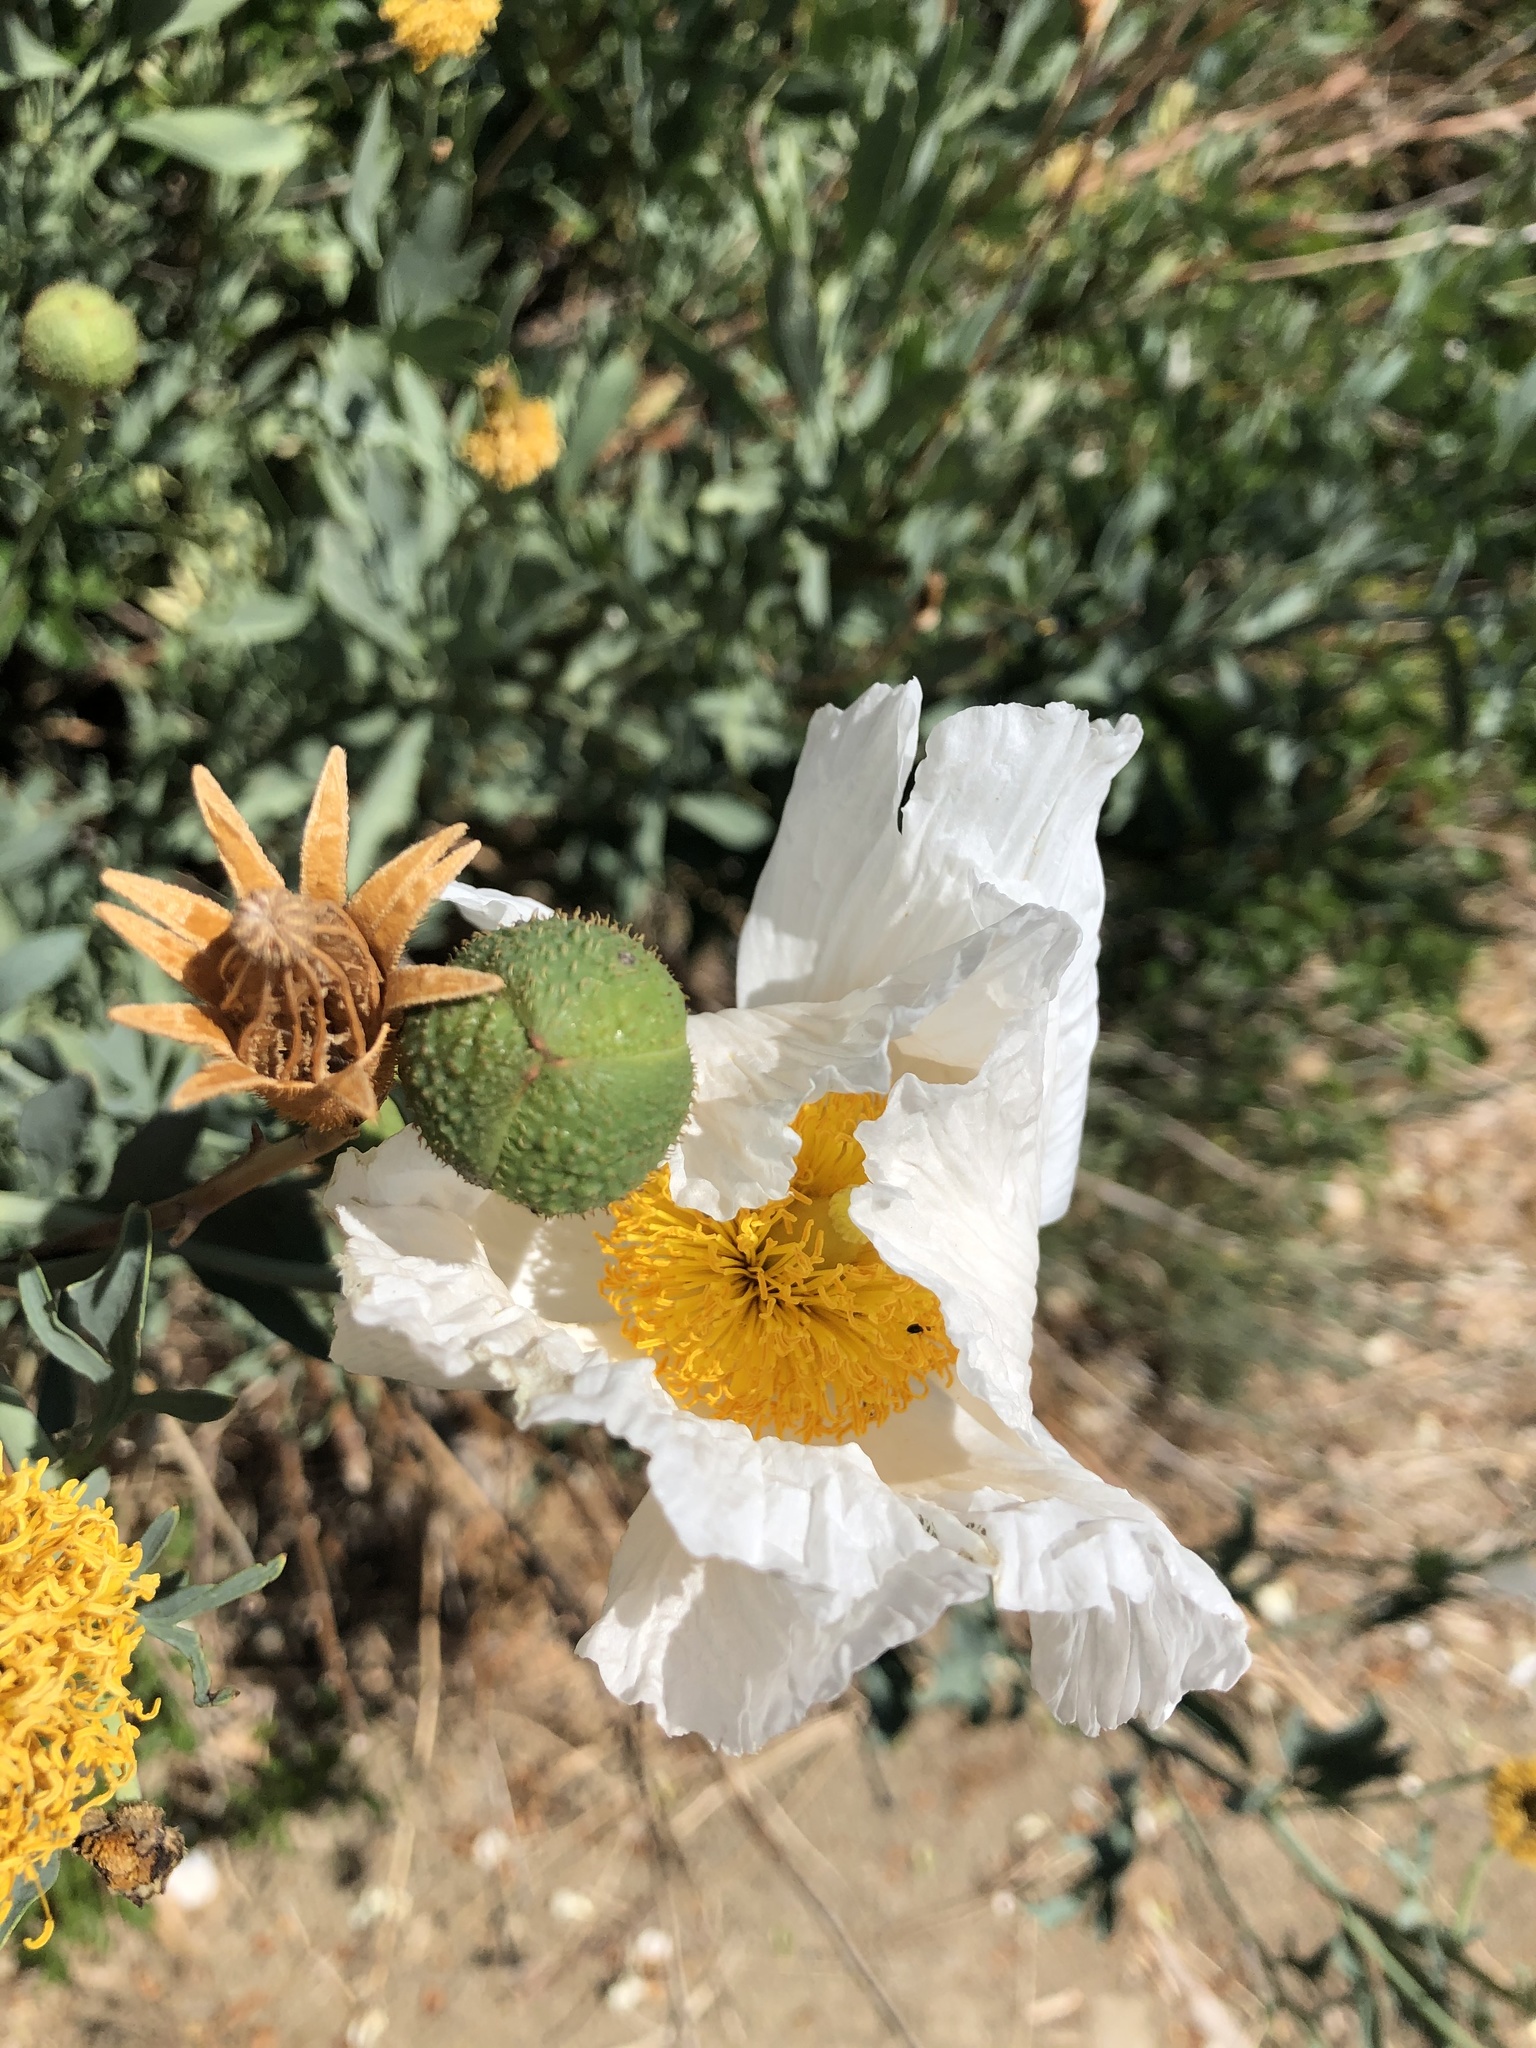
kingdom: Plantae
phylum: Tracheophyta
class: Magnoliopsida
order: Ranunculales
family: Papaveraceae
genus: Romneya
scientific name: Romneya trichocalyx
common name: Hairy matilija-poppy
